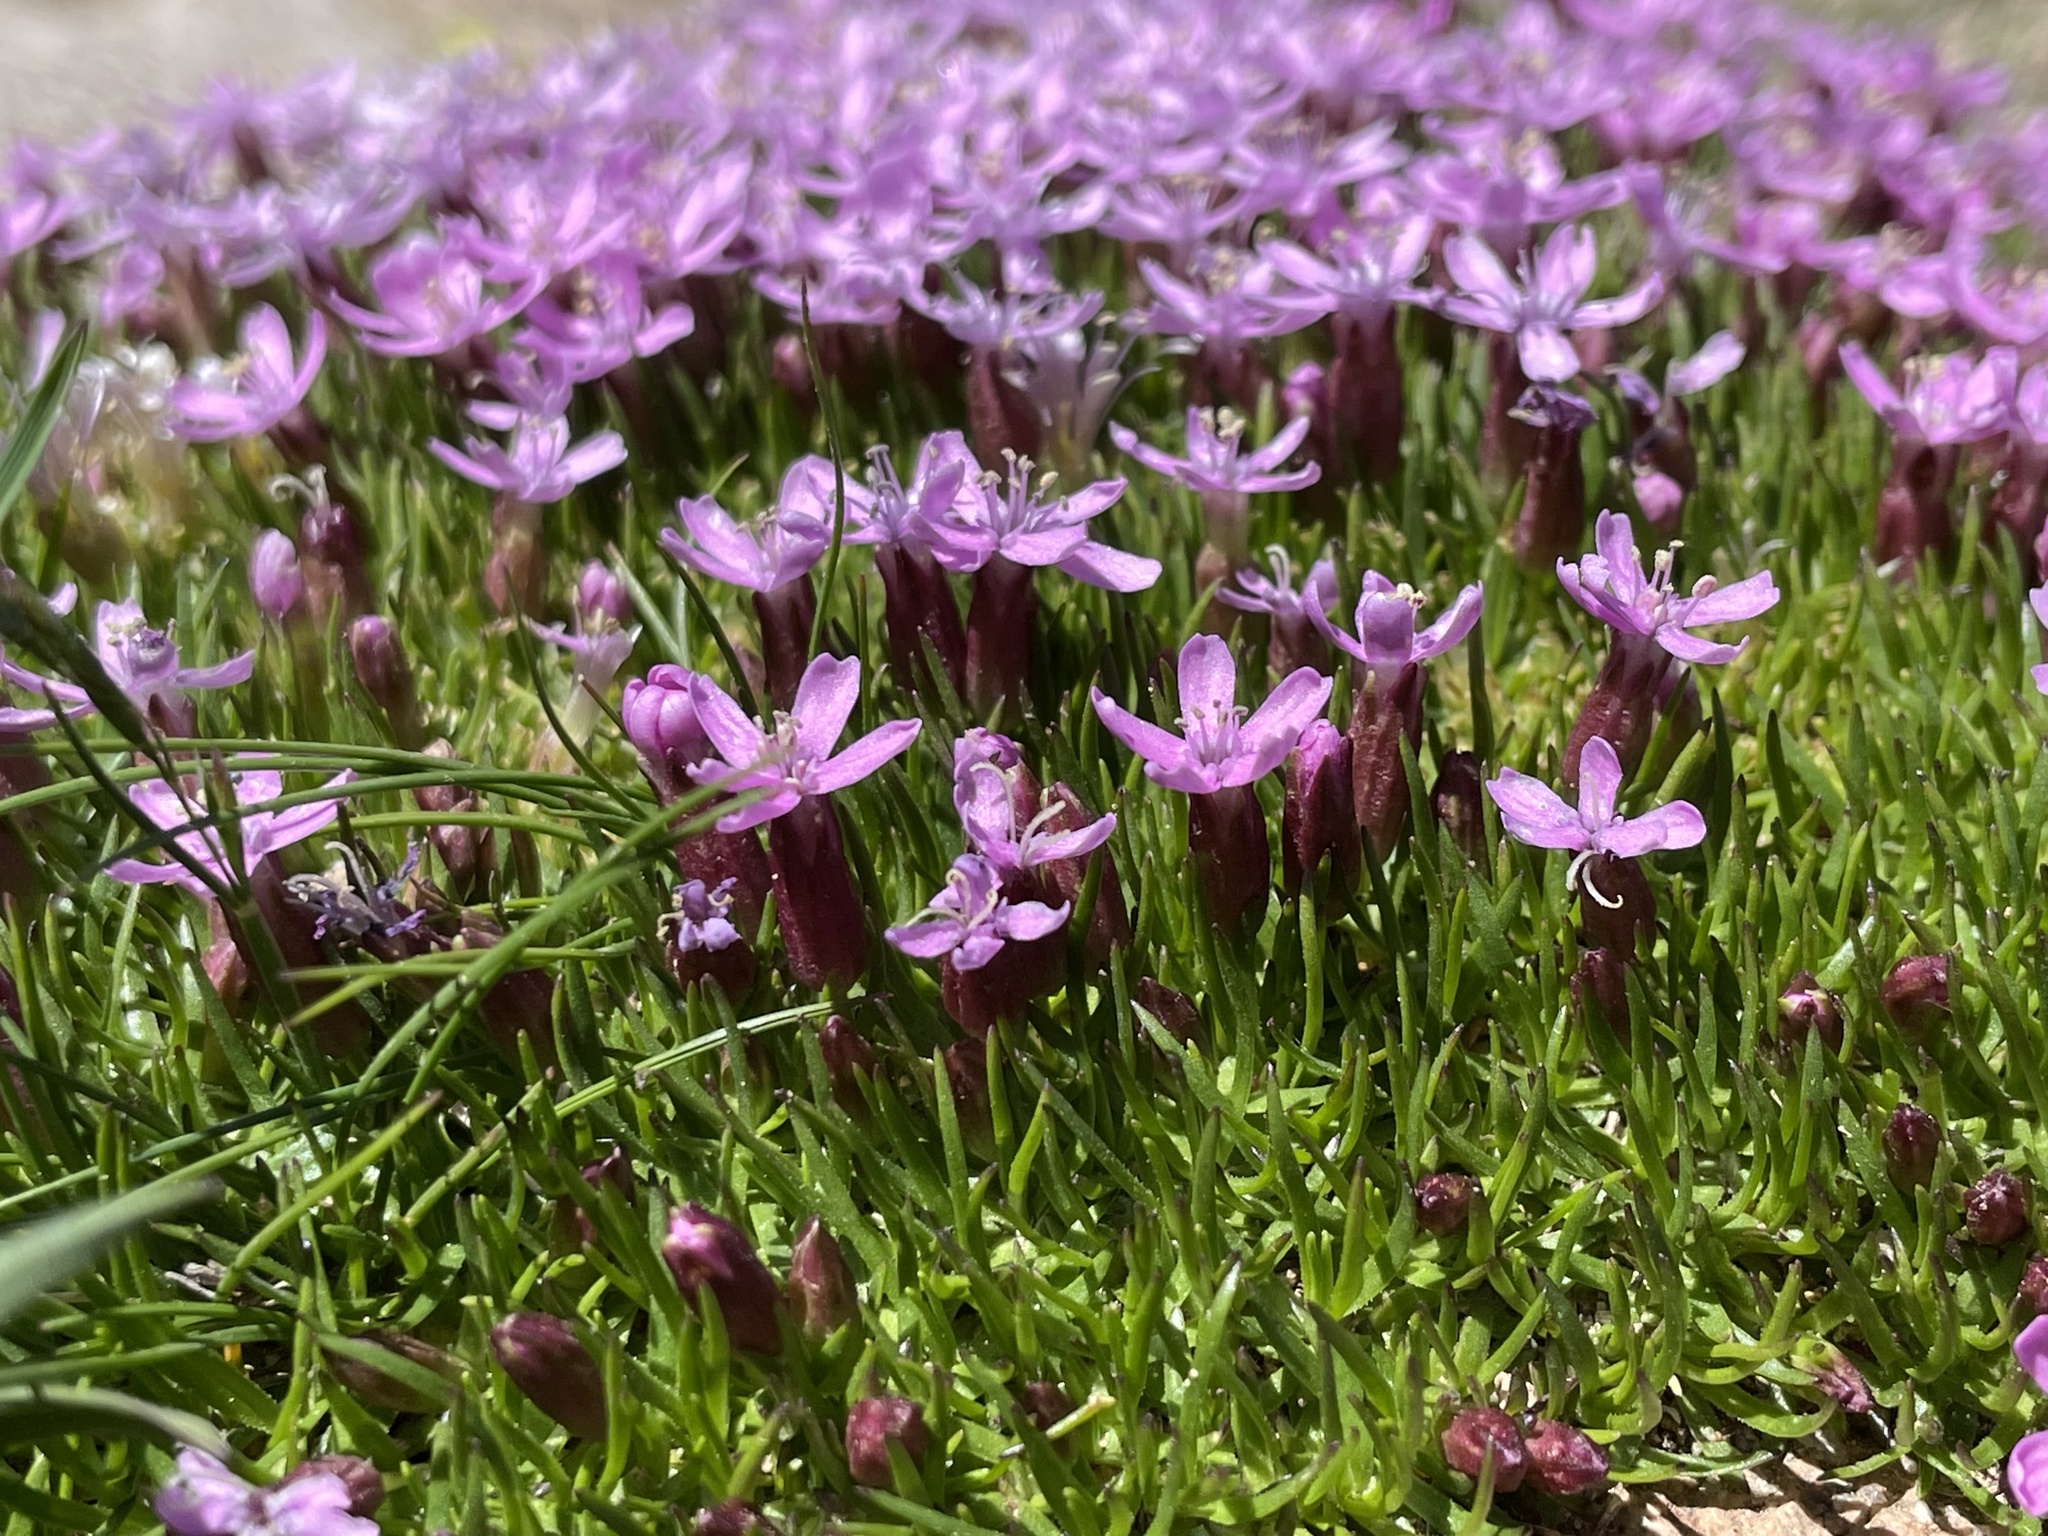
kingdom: Plantae
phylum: Tracheophyta
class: Magnoliopsida
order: Caryophyllales
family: Caryophyllaceae
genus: Silene
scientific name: Silene acaulis
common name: Moss campion
